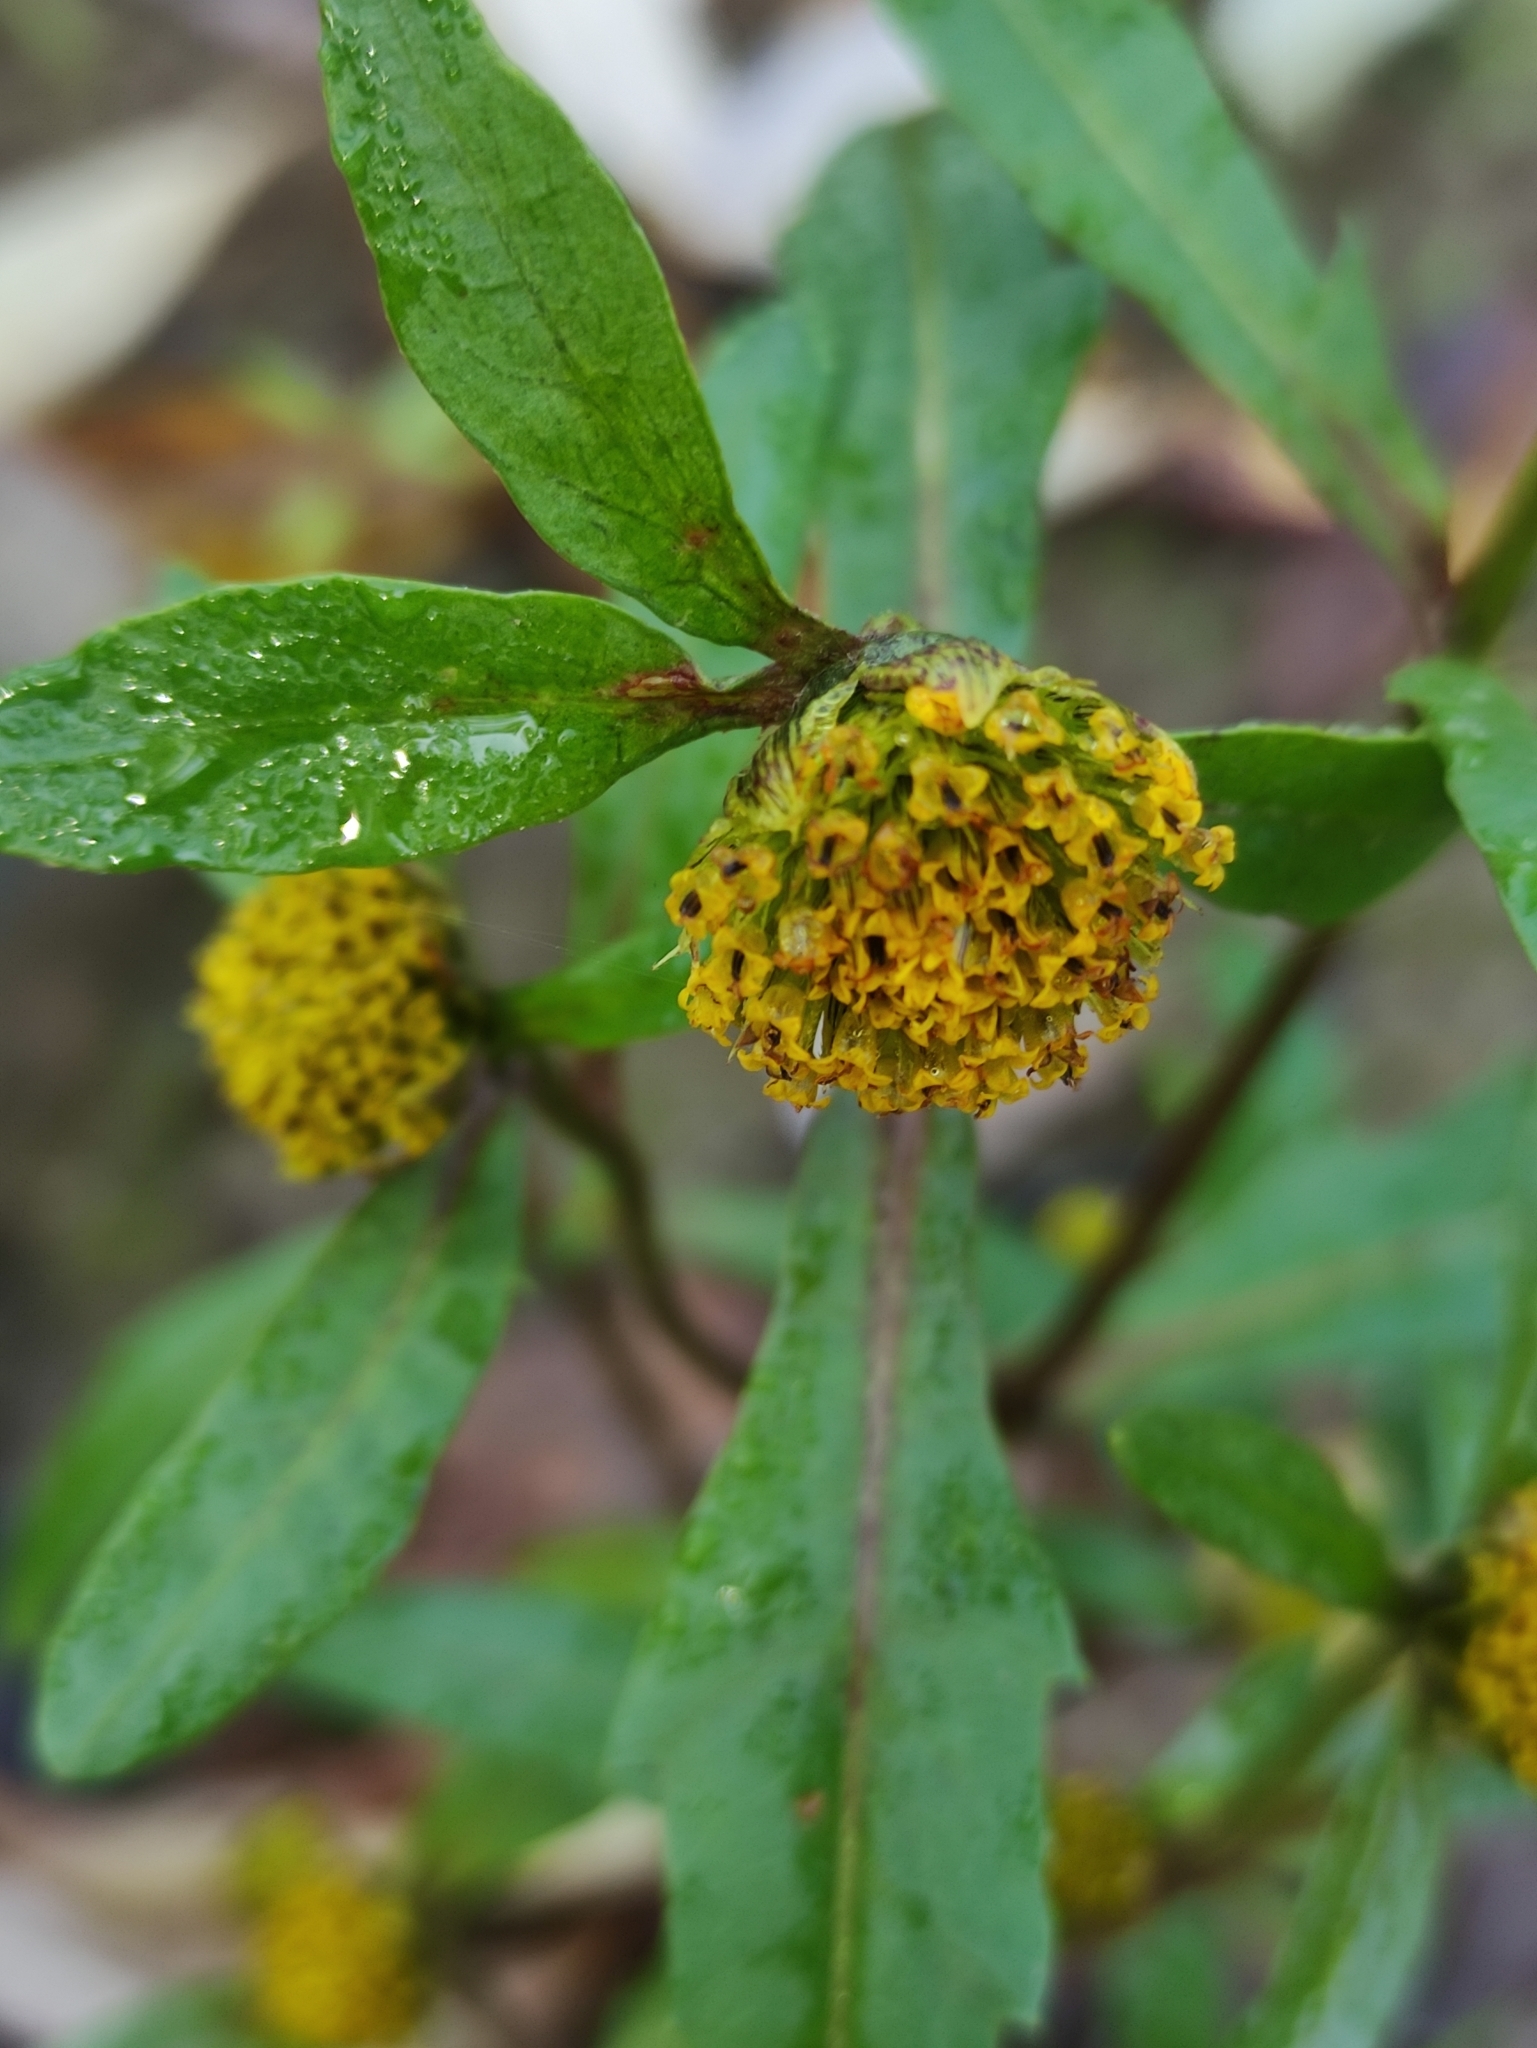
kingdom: Plantae
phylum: Tracheophyta
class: Magnoliopsida
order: Asterales
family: Asteraceae
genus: Bidens
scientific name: Bidens cernua
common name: Nodding bur-marigold
